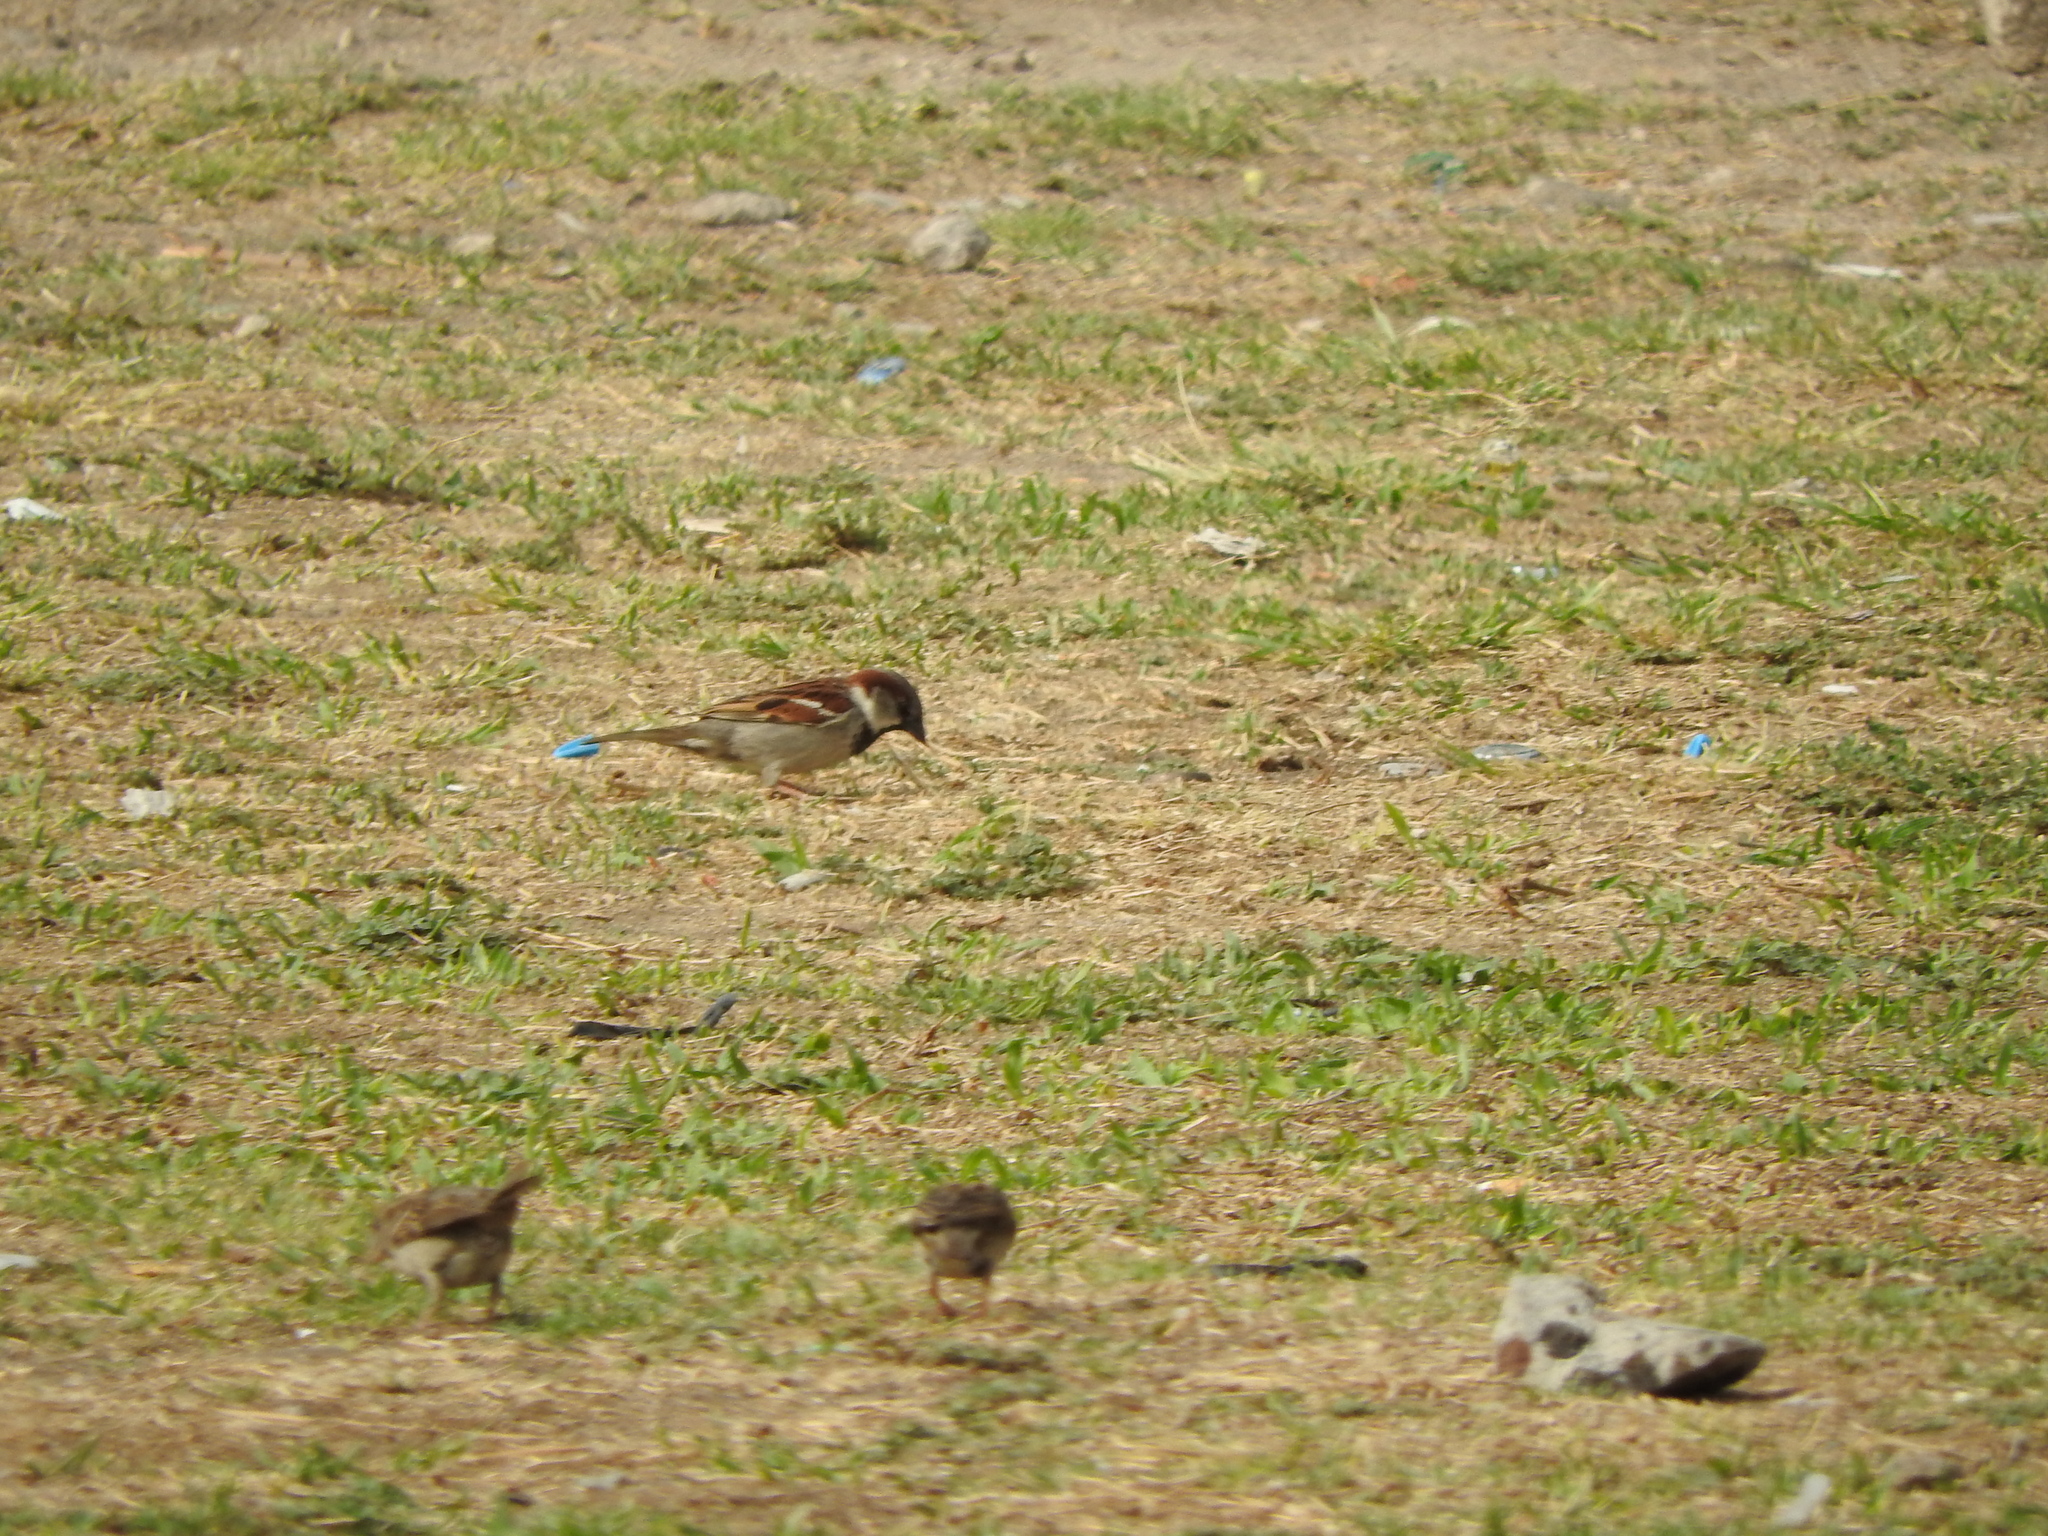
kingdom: Animalia
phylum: Chordata
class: Aves
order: Passeriformes
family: Passeridae
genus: Passer
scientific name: Passer domesticus
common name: House sparrow
